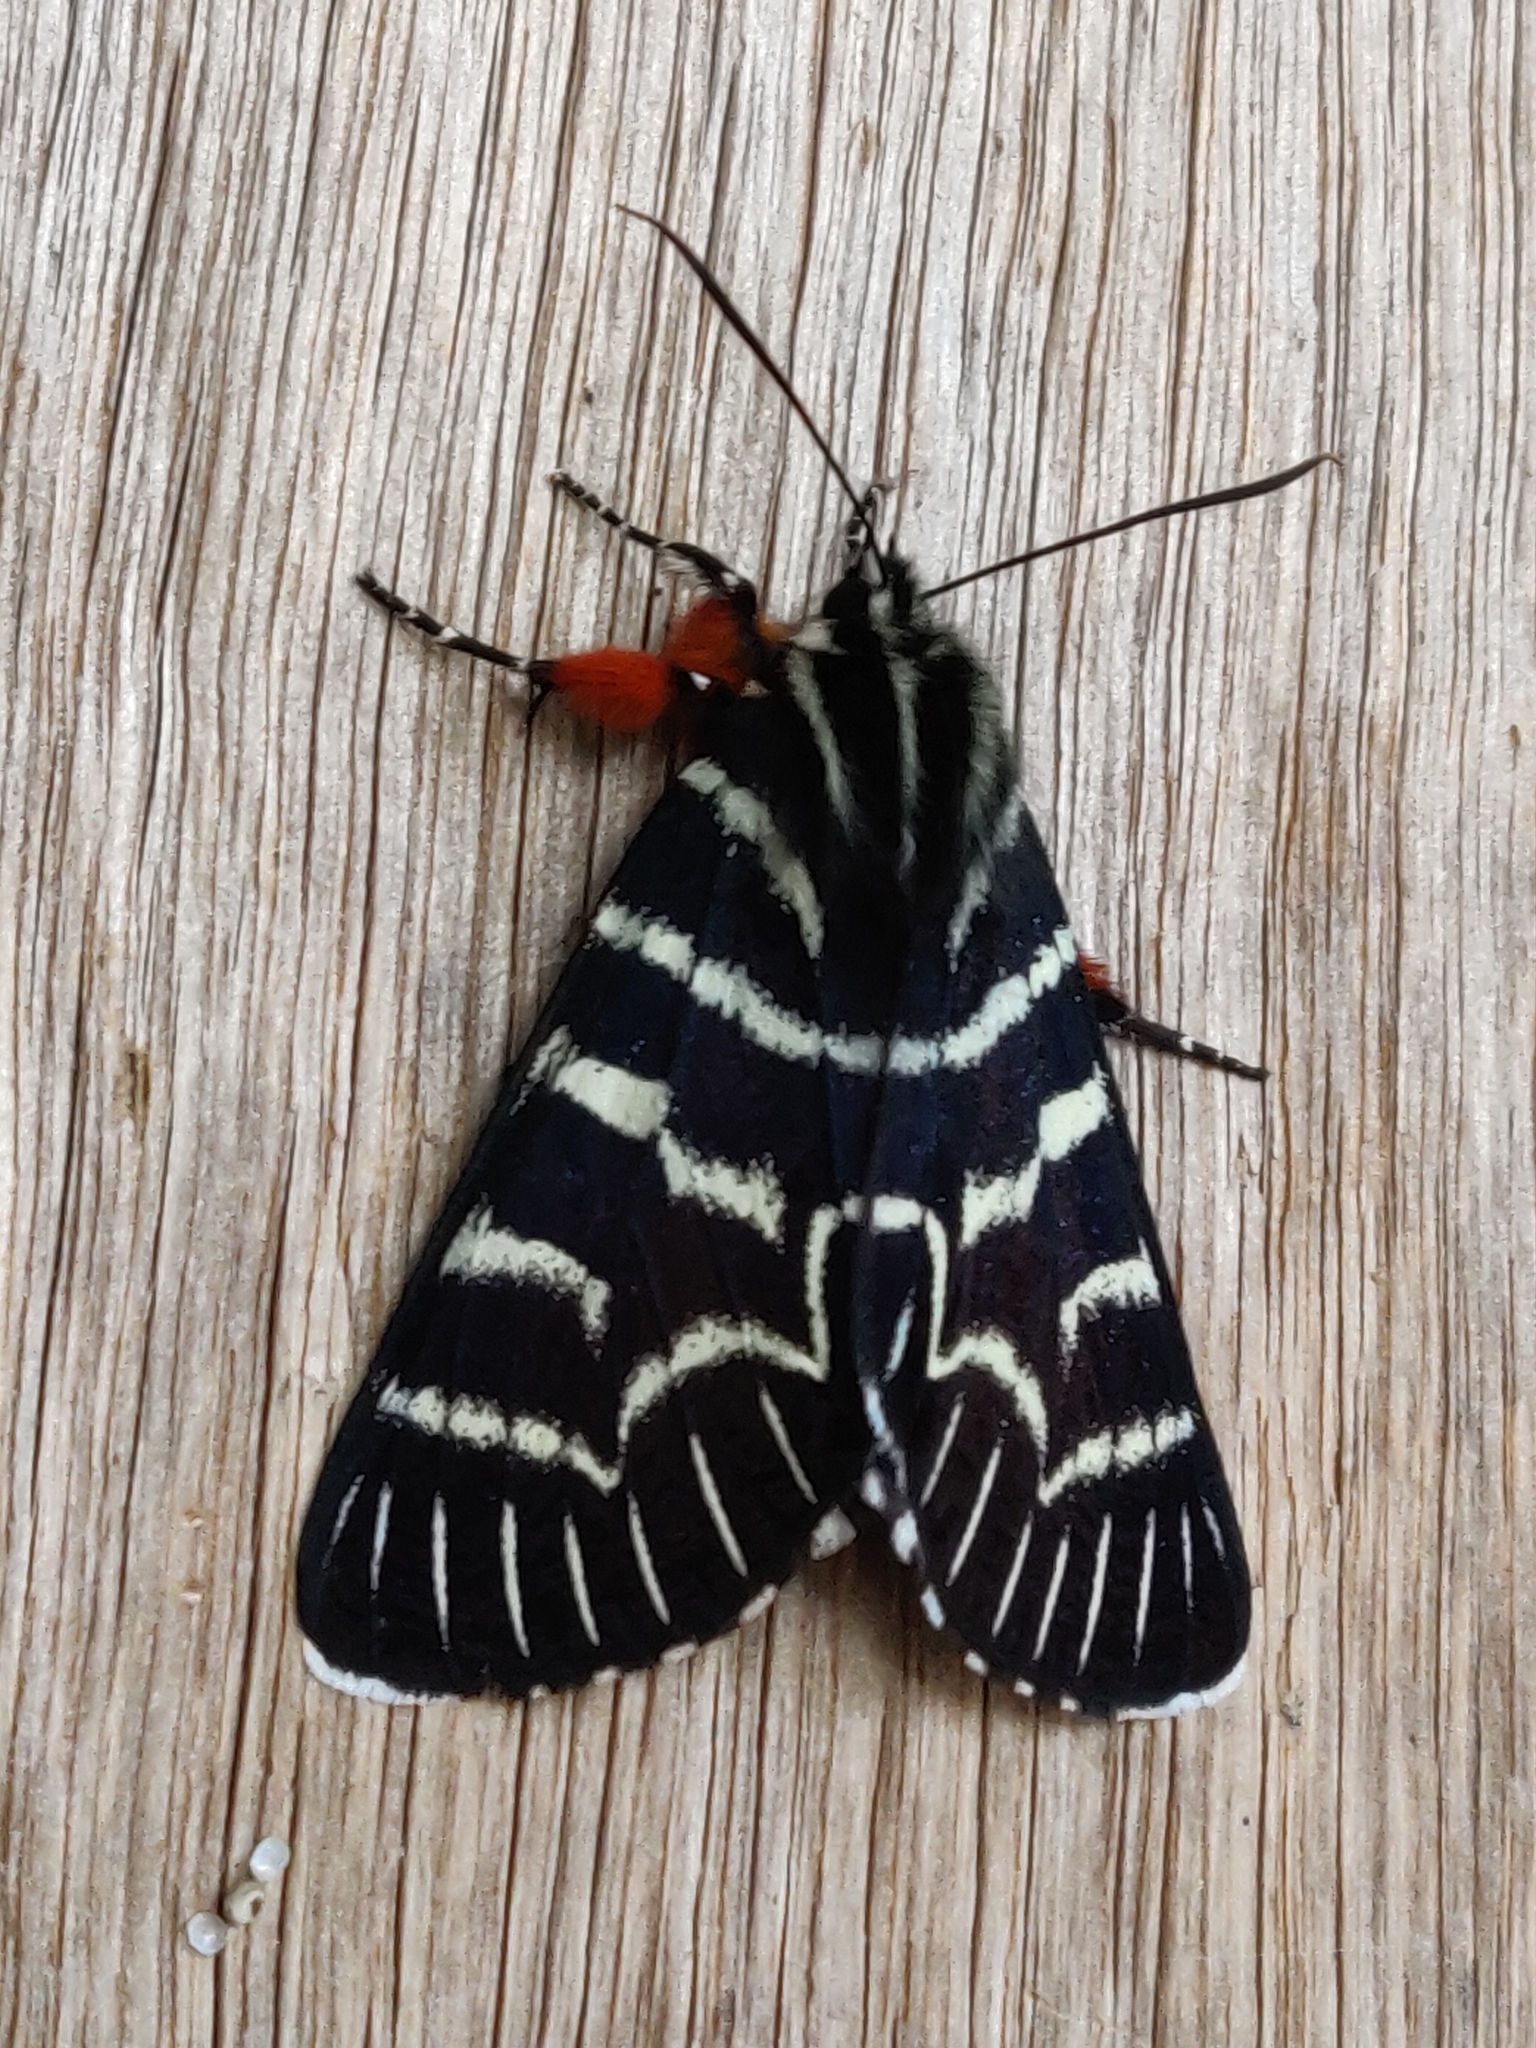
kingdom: Animalia
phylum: Arthropoda
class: Insecta
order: Lepidoptera
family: Noctuidae
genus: Comocrus
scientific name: Comocrus behri
